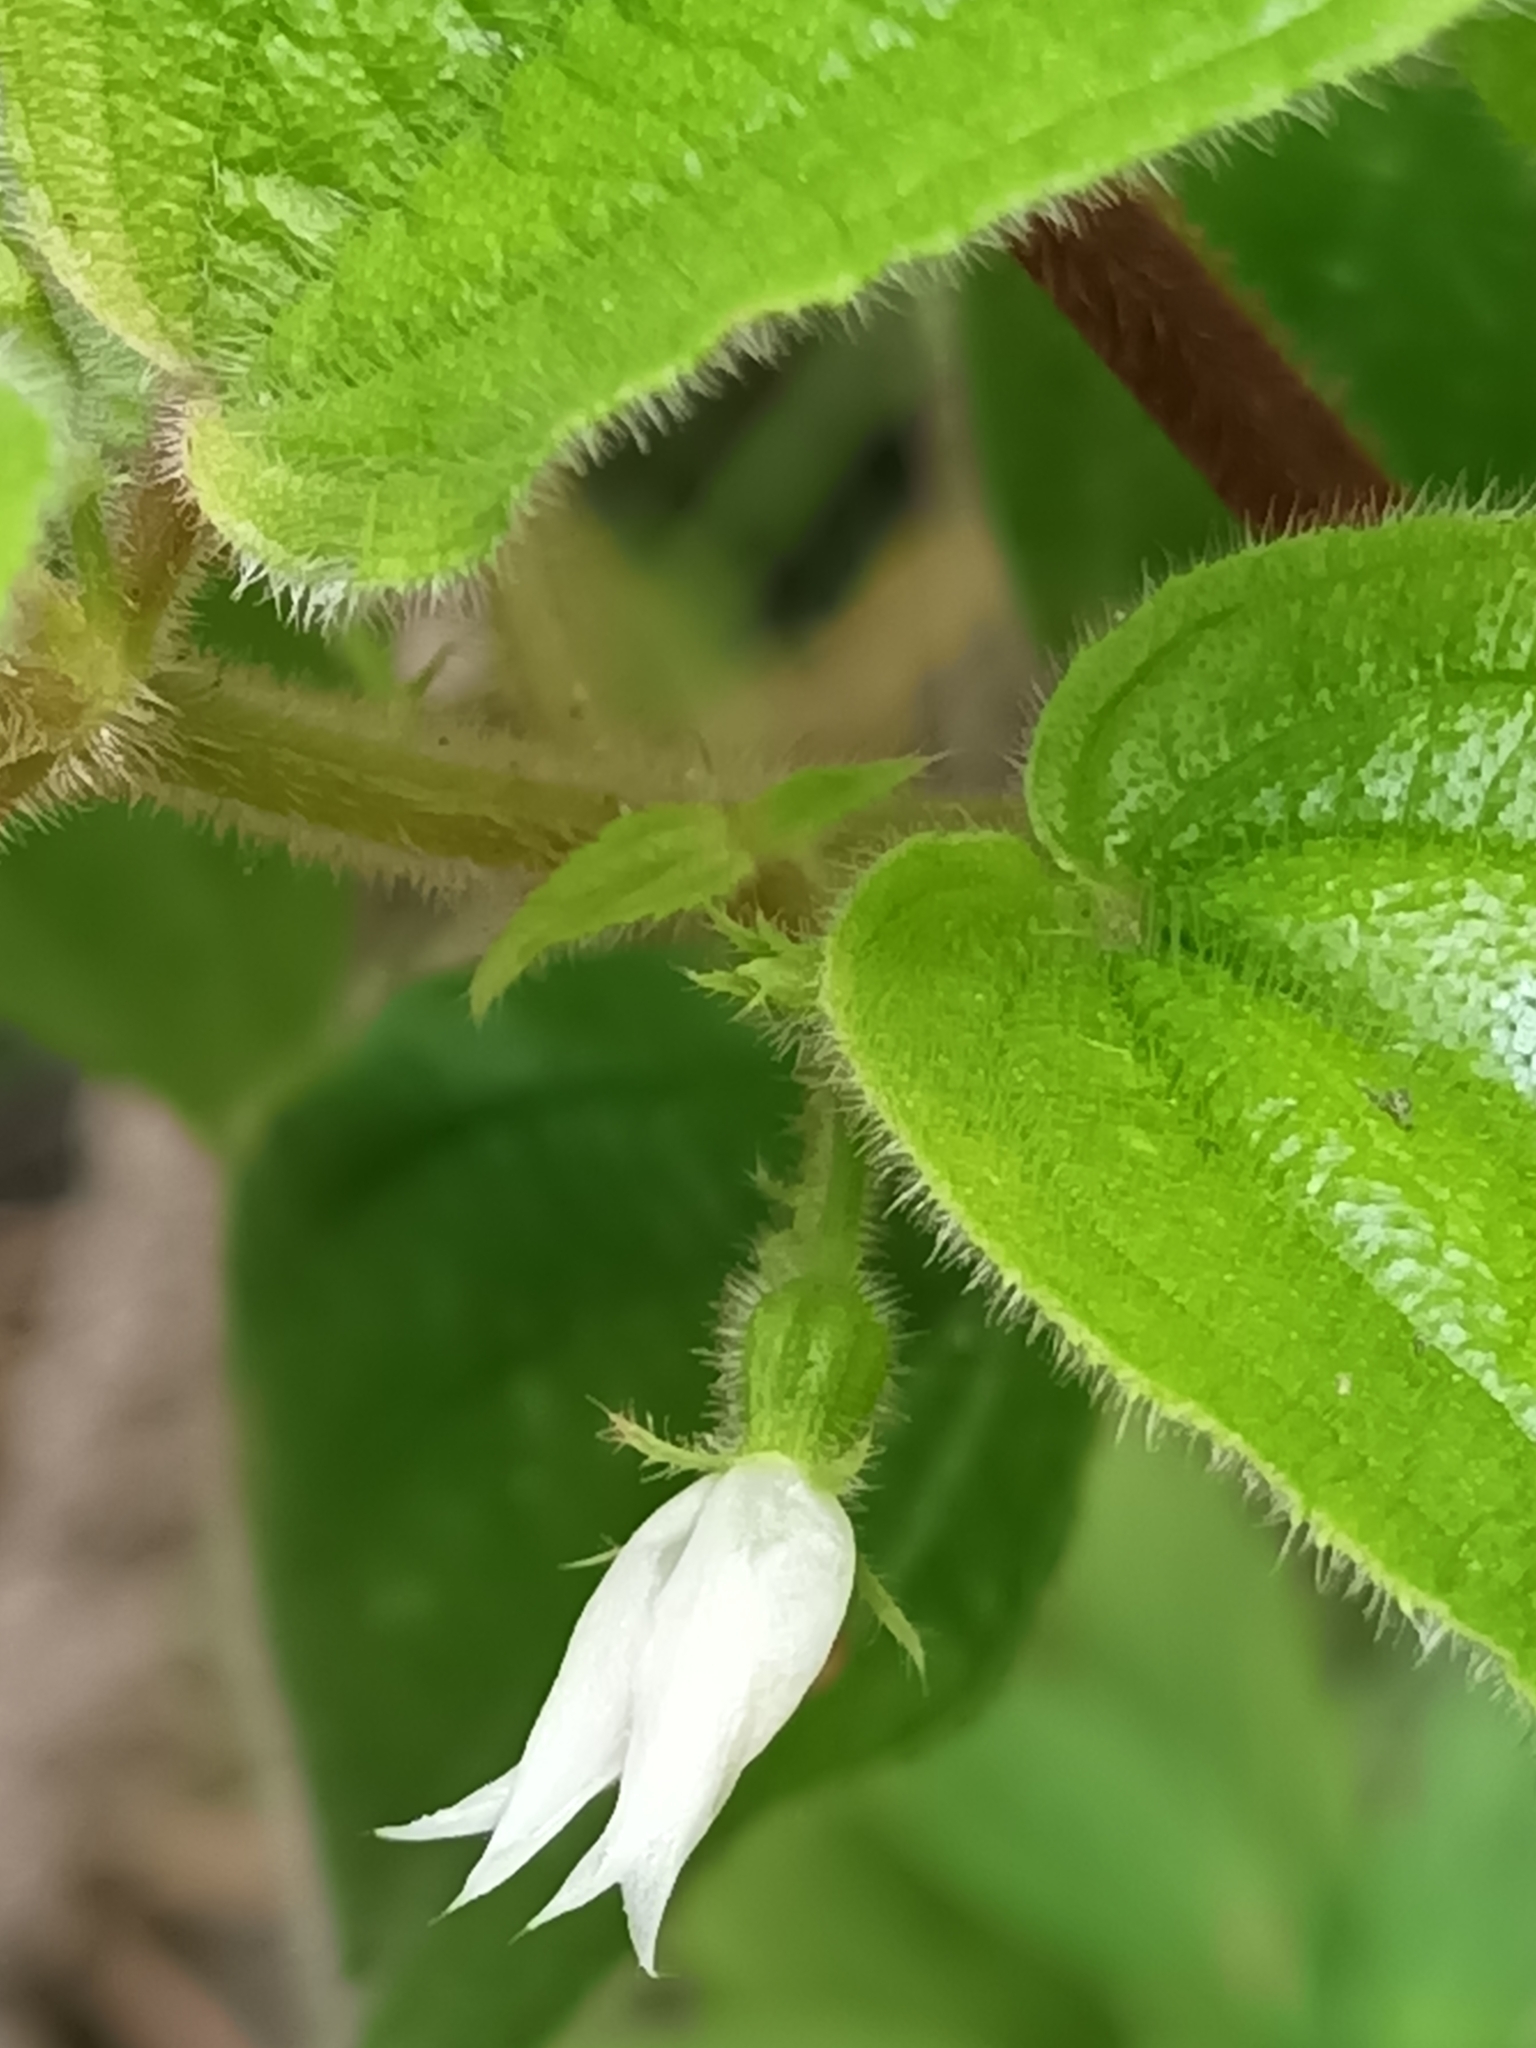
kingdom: Plantae
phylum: Tracheophyta
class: Magnoliopsida
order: Myrtales
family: Melastomataceae
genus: Pseudoernestia
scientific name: Pseudoernestia glandulosa
